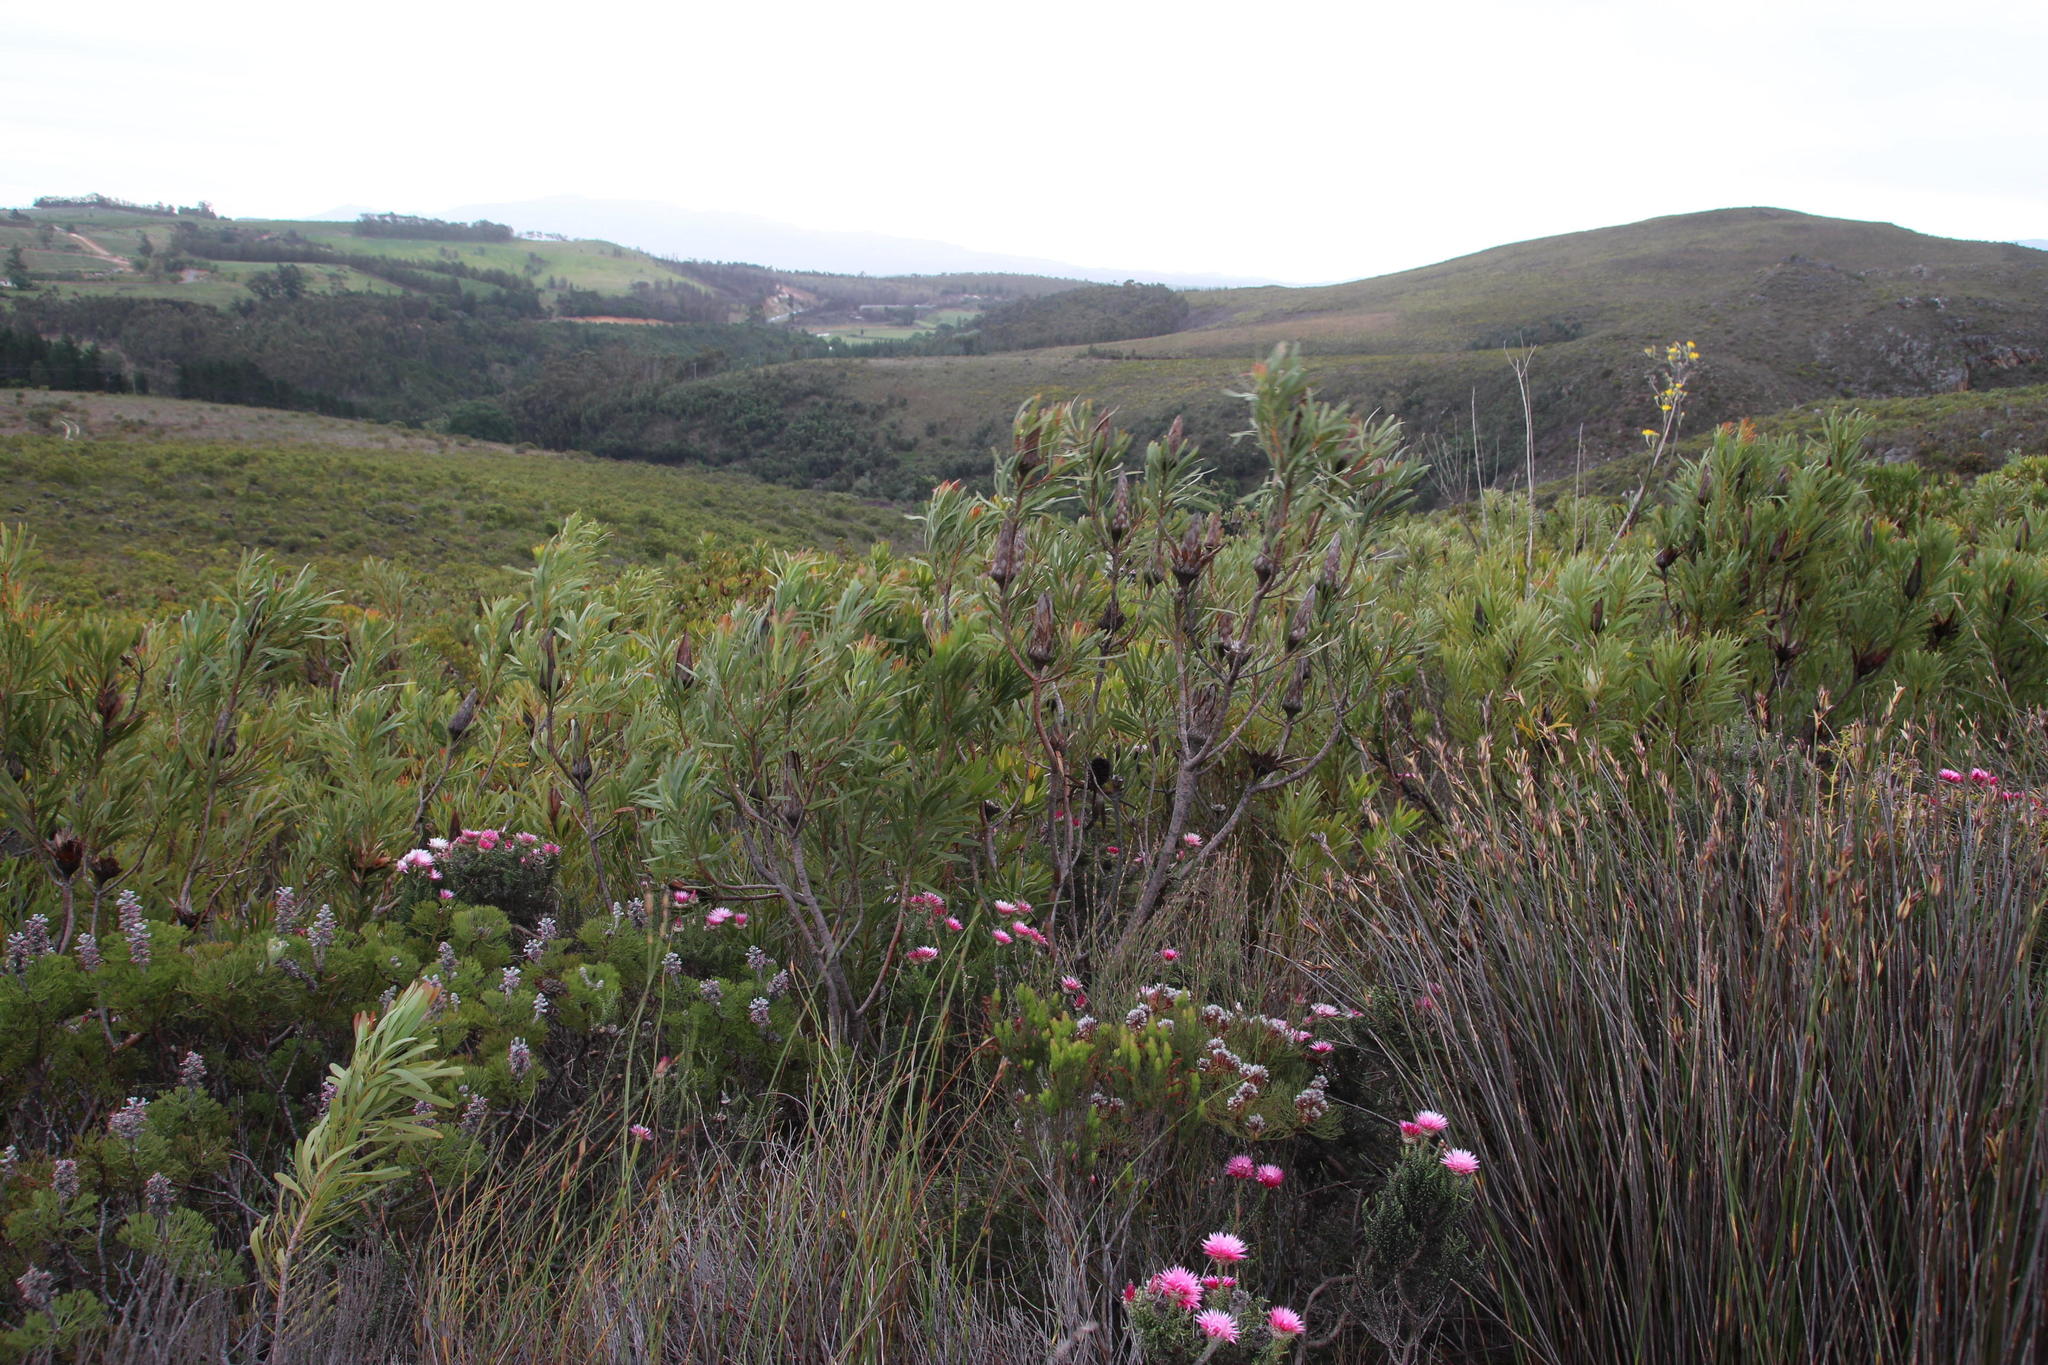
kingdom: Plantae
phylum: Tracheophyta
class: Magnoliopsida
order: Proteales
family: Proteaceae
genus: Protea
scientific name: Protea repens
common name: Sugarbush
